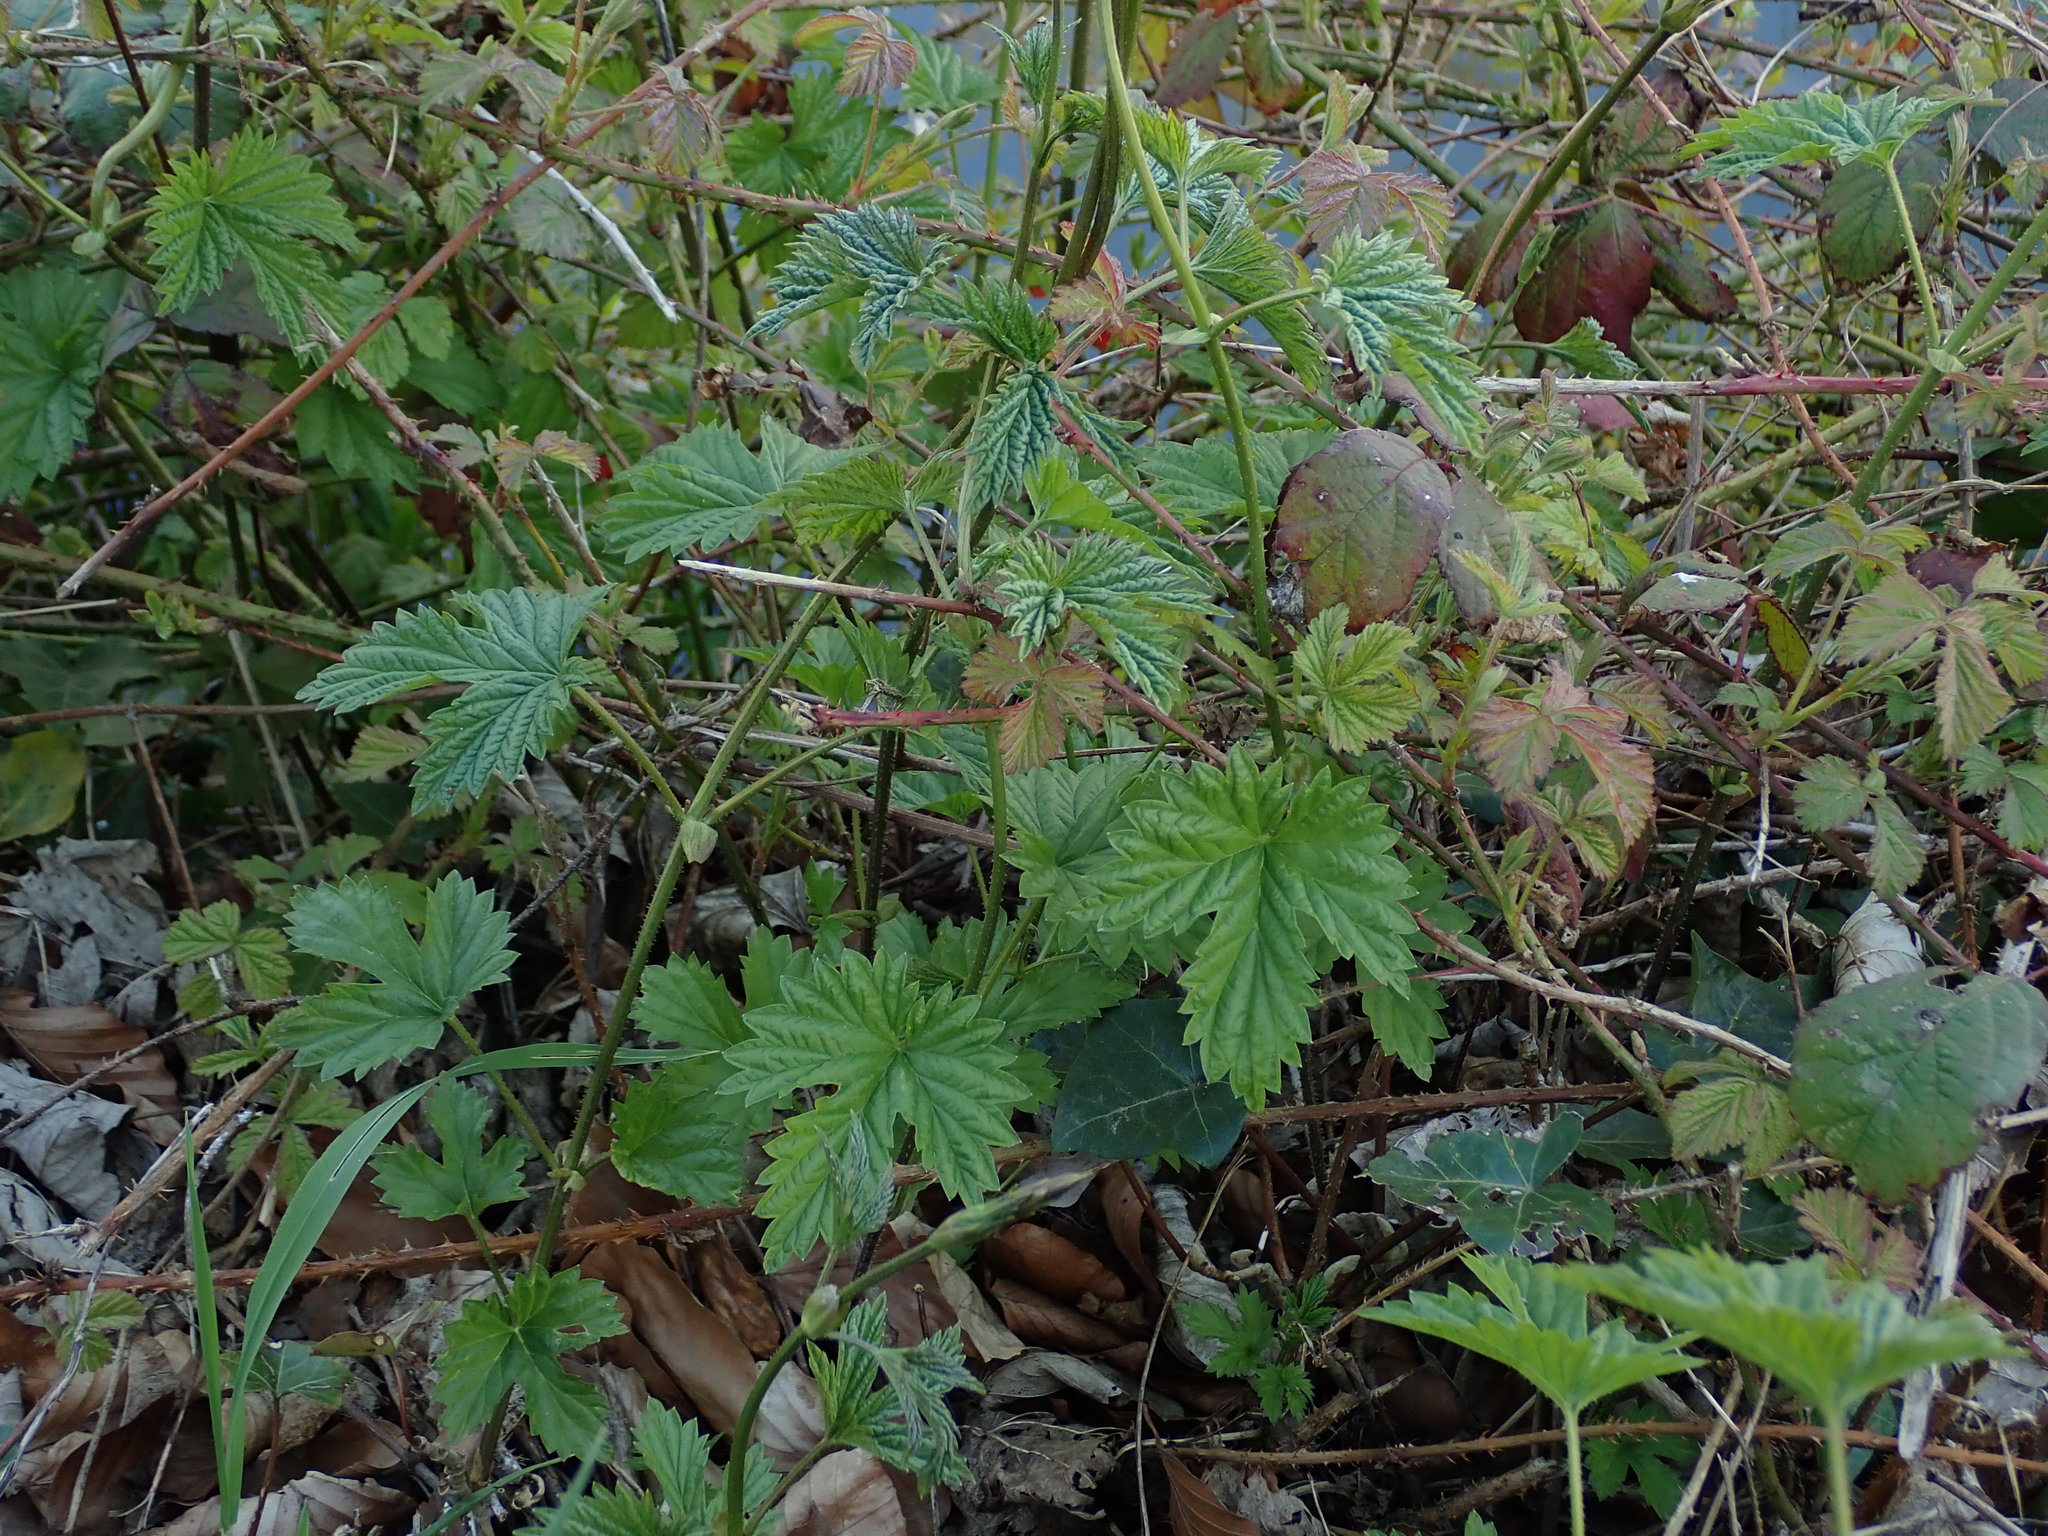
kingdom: Plantae
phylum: Tracheophyta
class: Magnoliopsida
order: Rosales
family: Cannabaceae
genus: Humulus
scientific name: Humulus lupulus
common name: Hop
